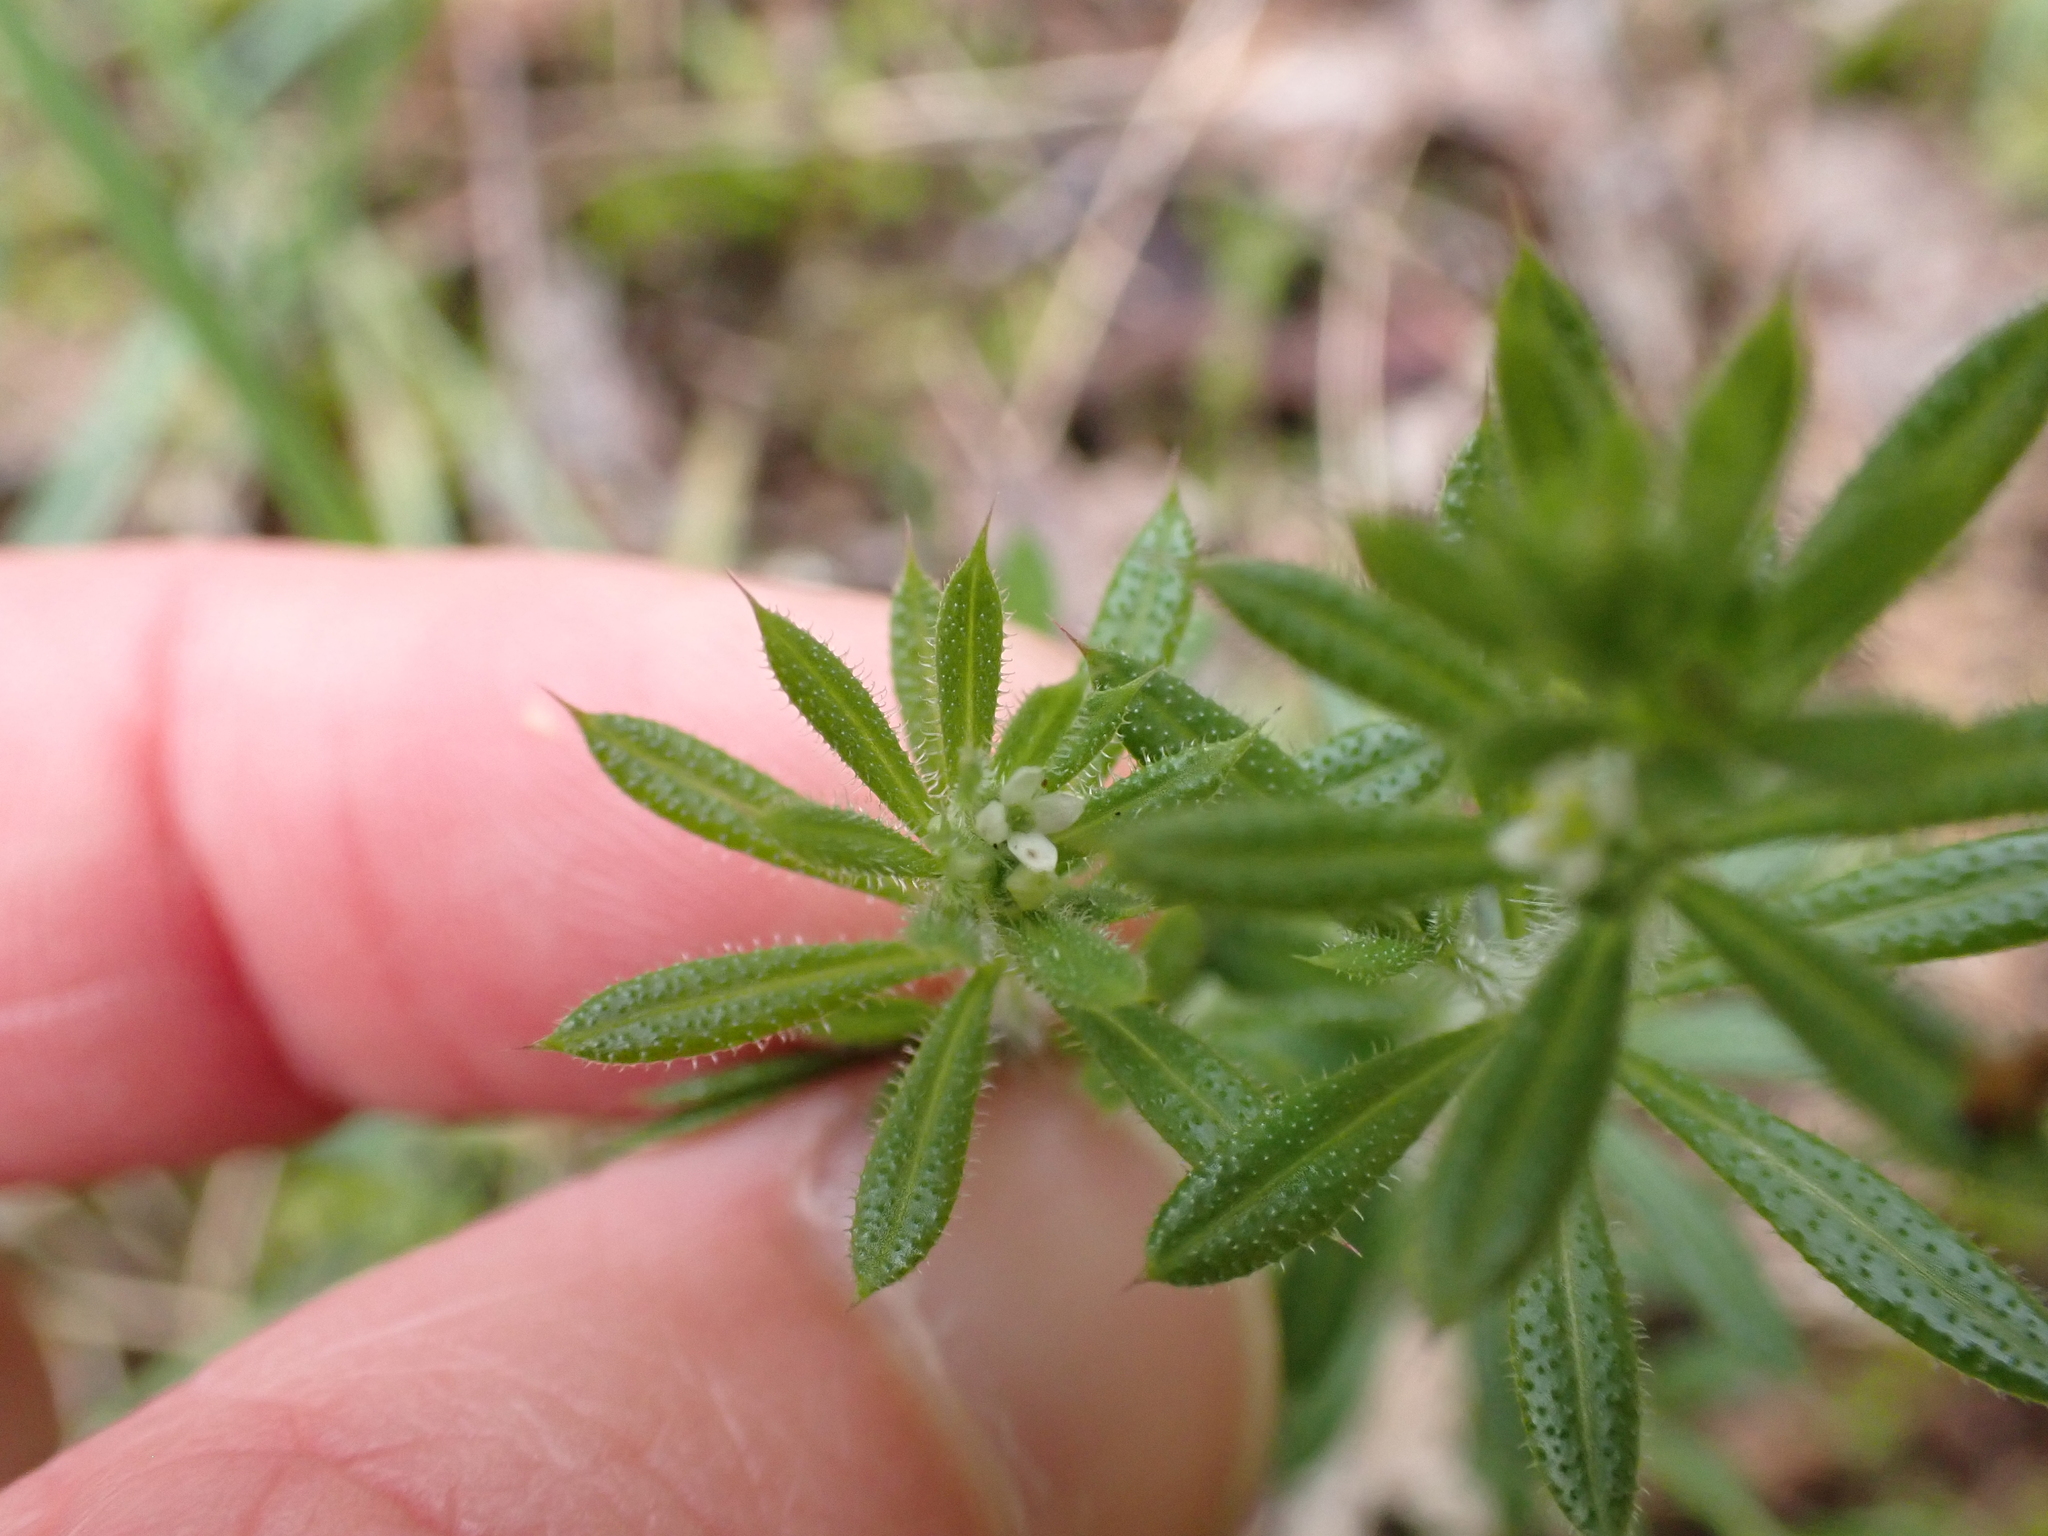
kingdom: Plantae
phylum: Tracheophyta
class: Magnoliopsida
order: Gentianales
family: Rubiaceae
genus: Galium
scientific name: Galium aparine
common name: Cleavers
